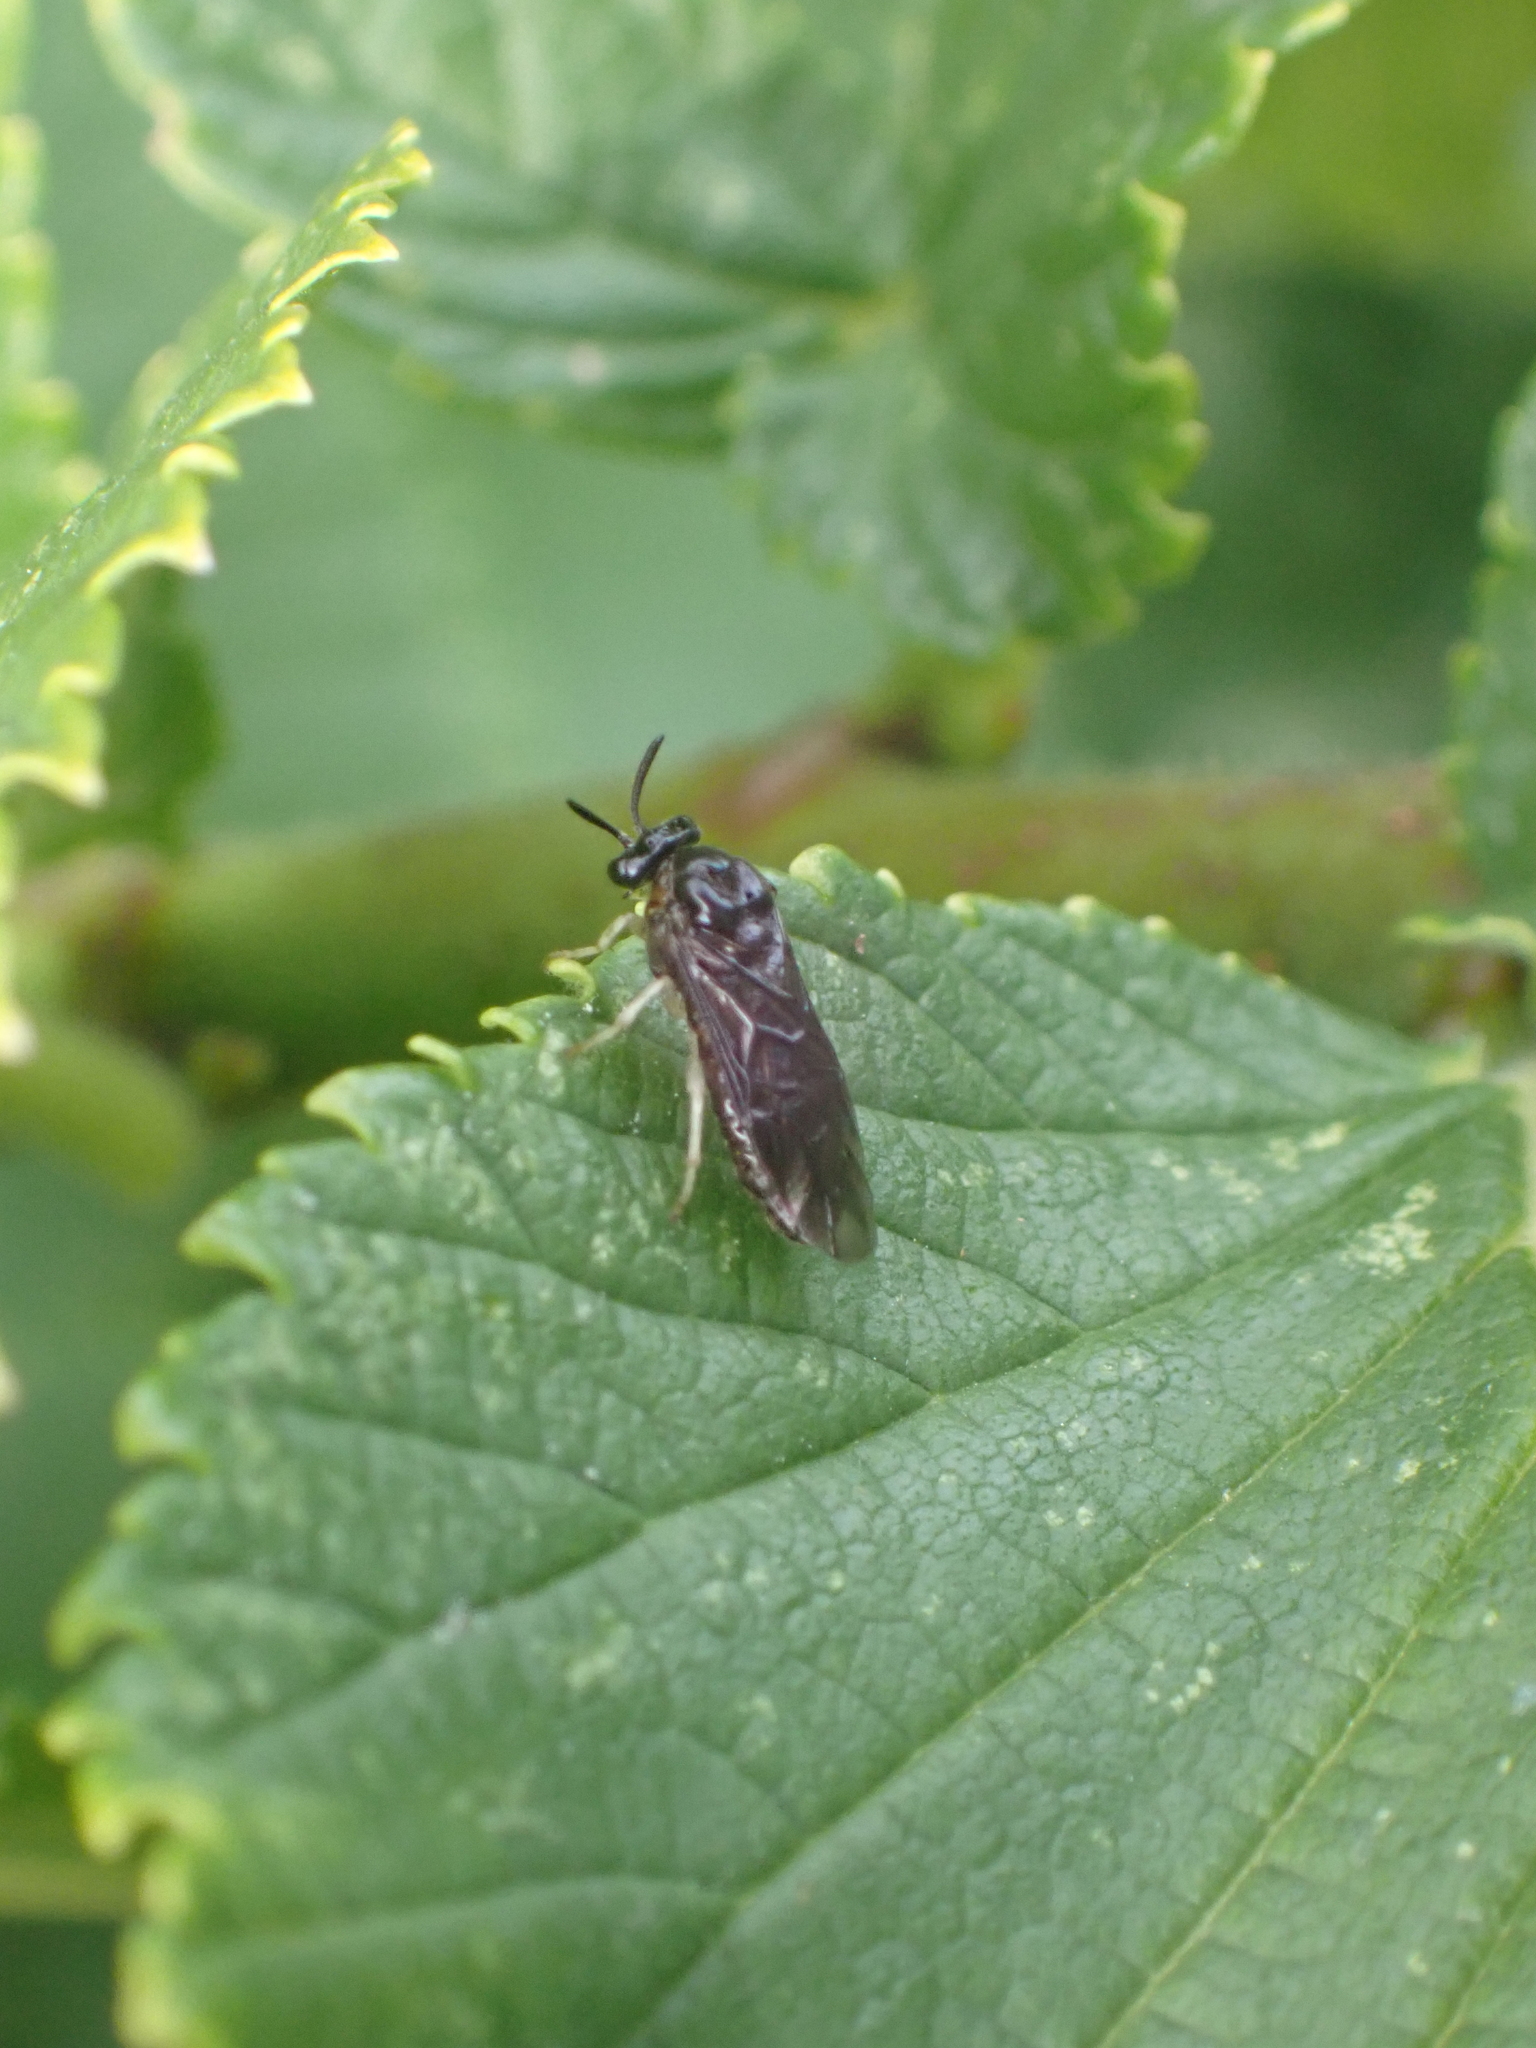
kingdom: Animalia
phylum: Arthropoda
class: Insecta
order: Hymenoptera
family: Argidae
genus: Aproceros
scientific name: Aproceros leucopoda
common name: Zig-zag elm sawfly
